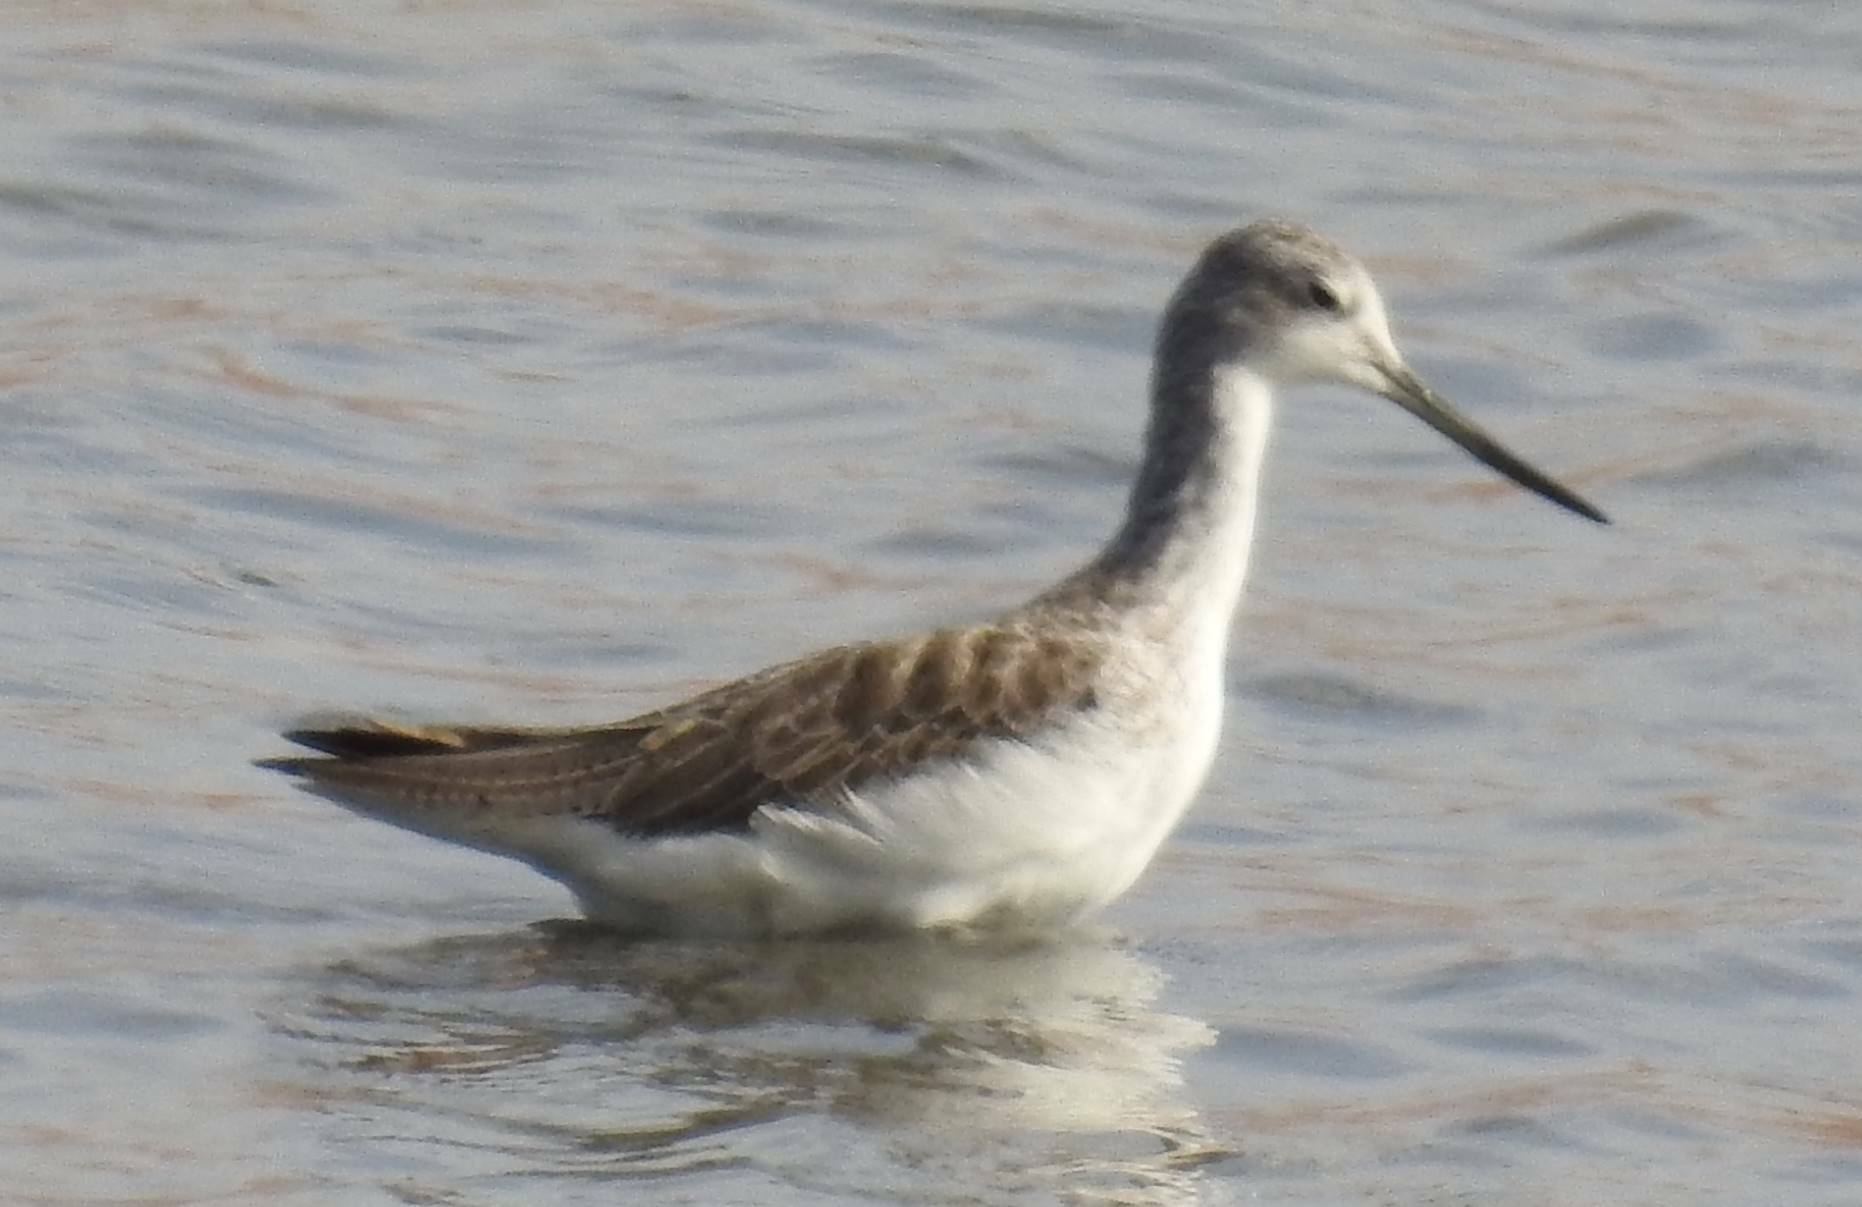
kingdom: Animalia
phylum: Chordata
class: Aves
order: Charadriiformes
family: Scolopacidae
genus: Tringa
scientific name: Tringa nebularia
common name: Common greenshank
